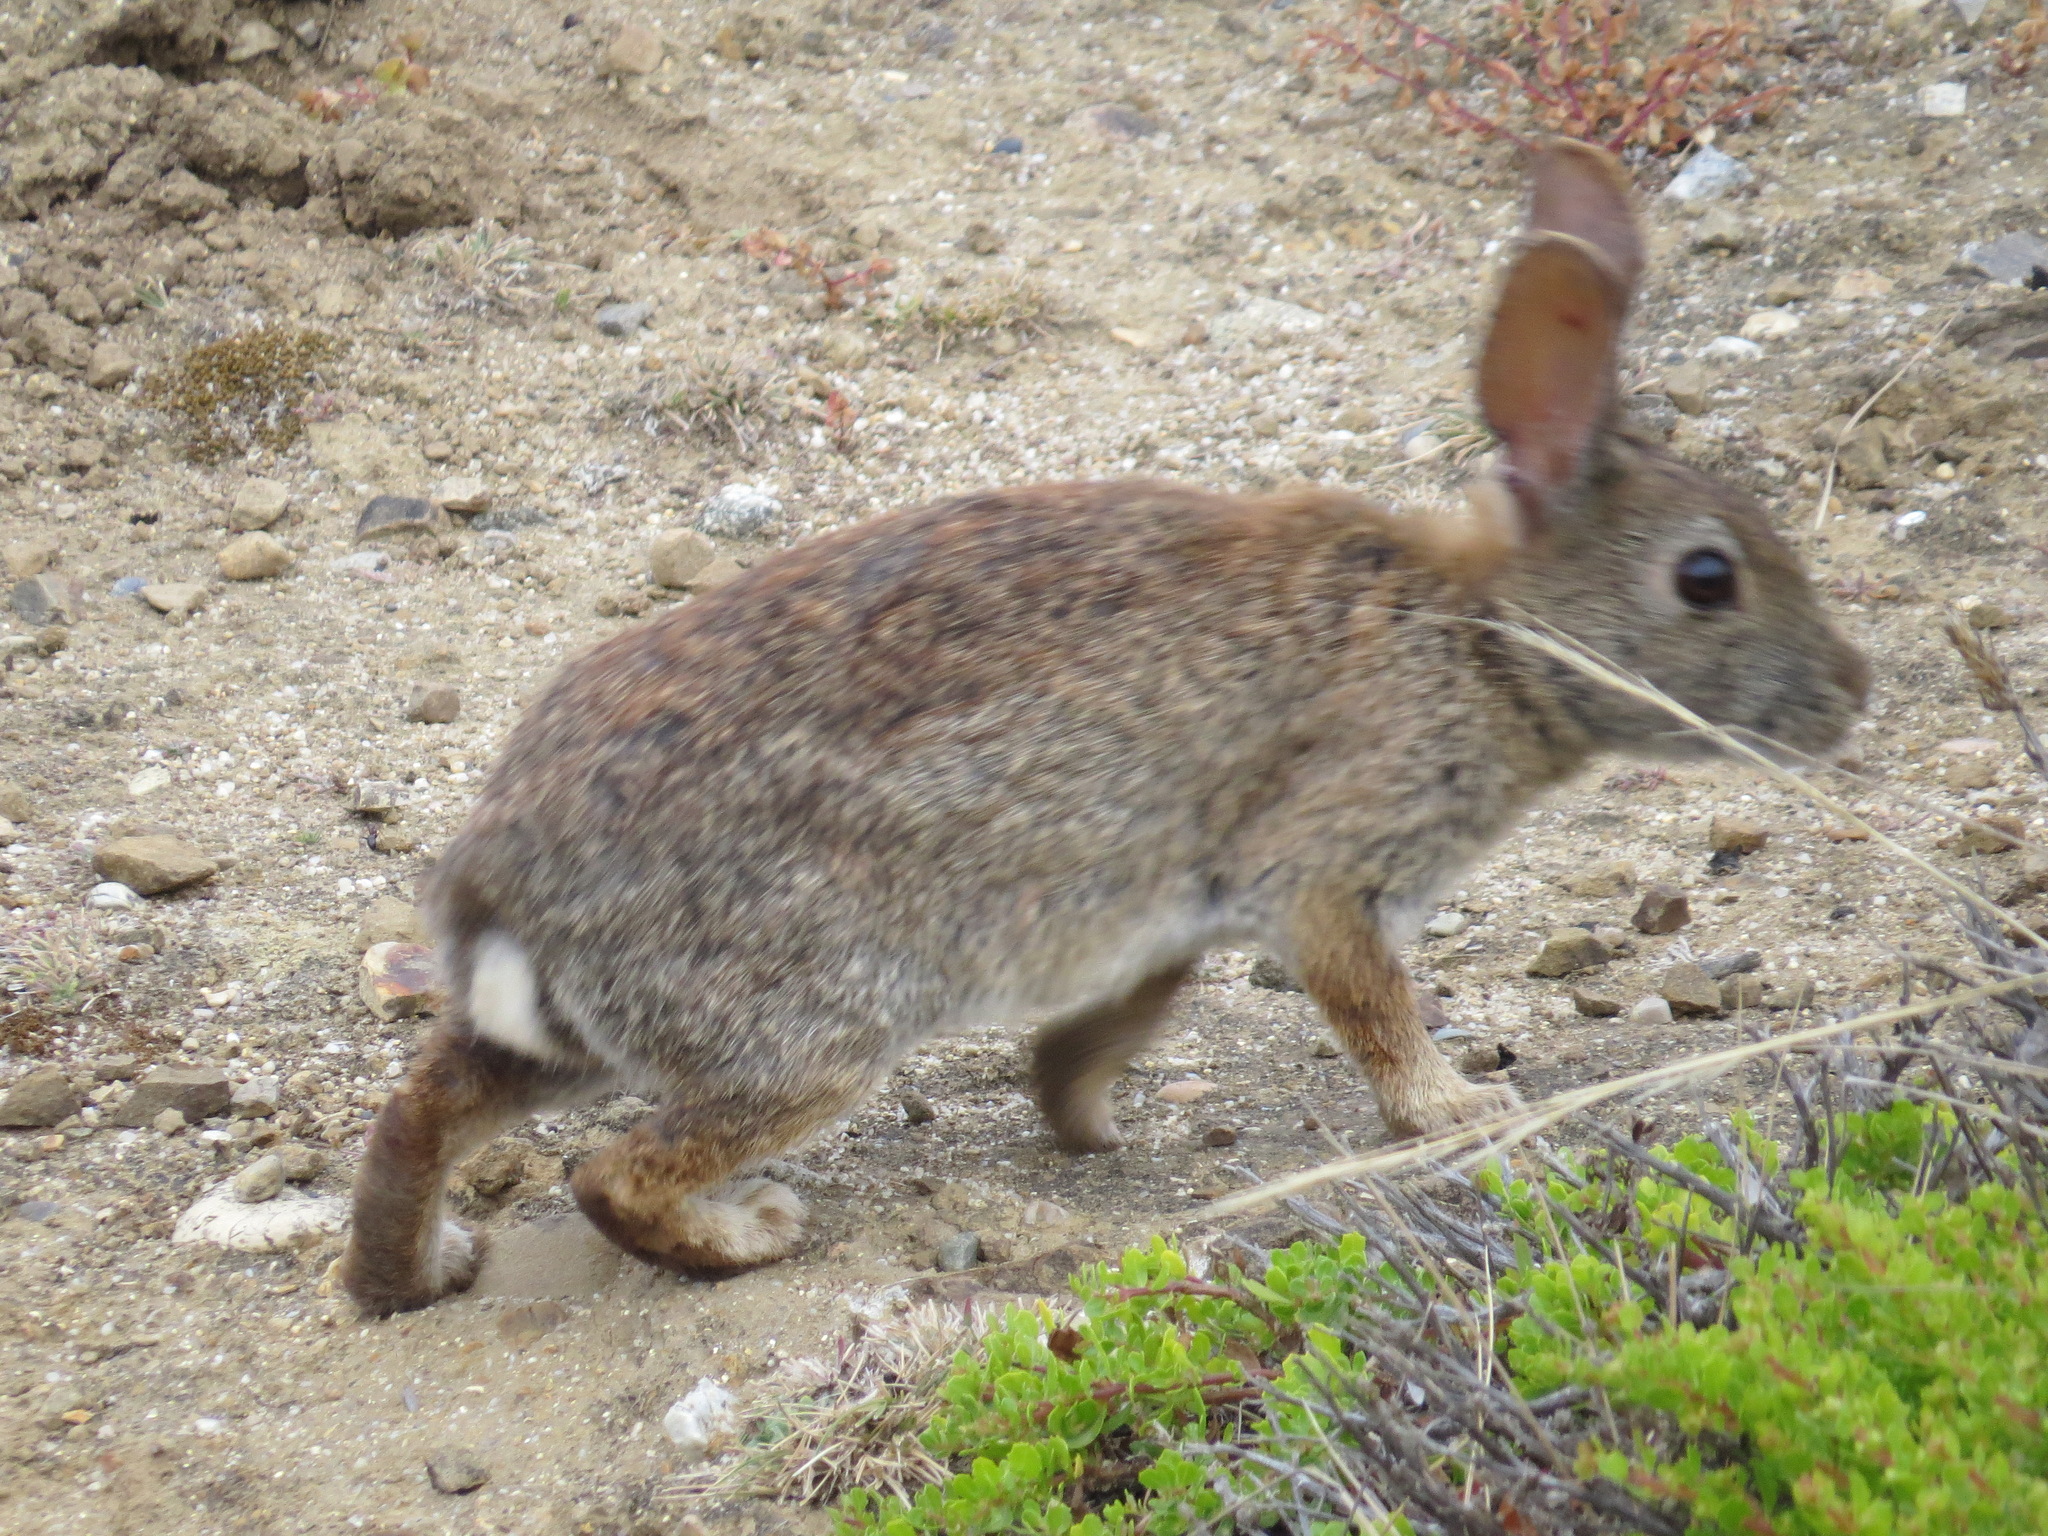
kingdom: Animalia
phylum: Chordata
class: Mammalia
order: Lagomorpha
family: Leporidae
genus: Sylvilagus
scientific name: Sylvilagus bachmani
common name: Brush rabbit
